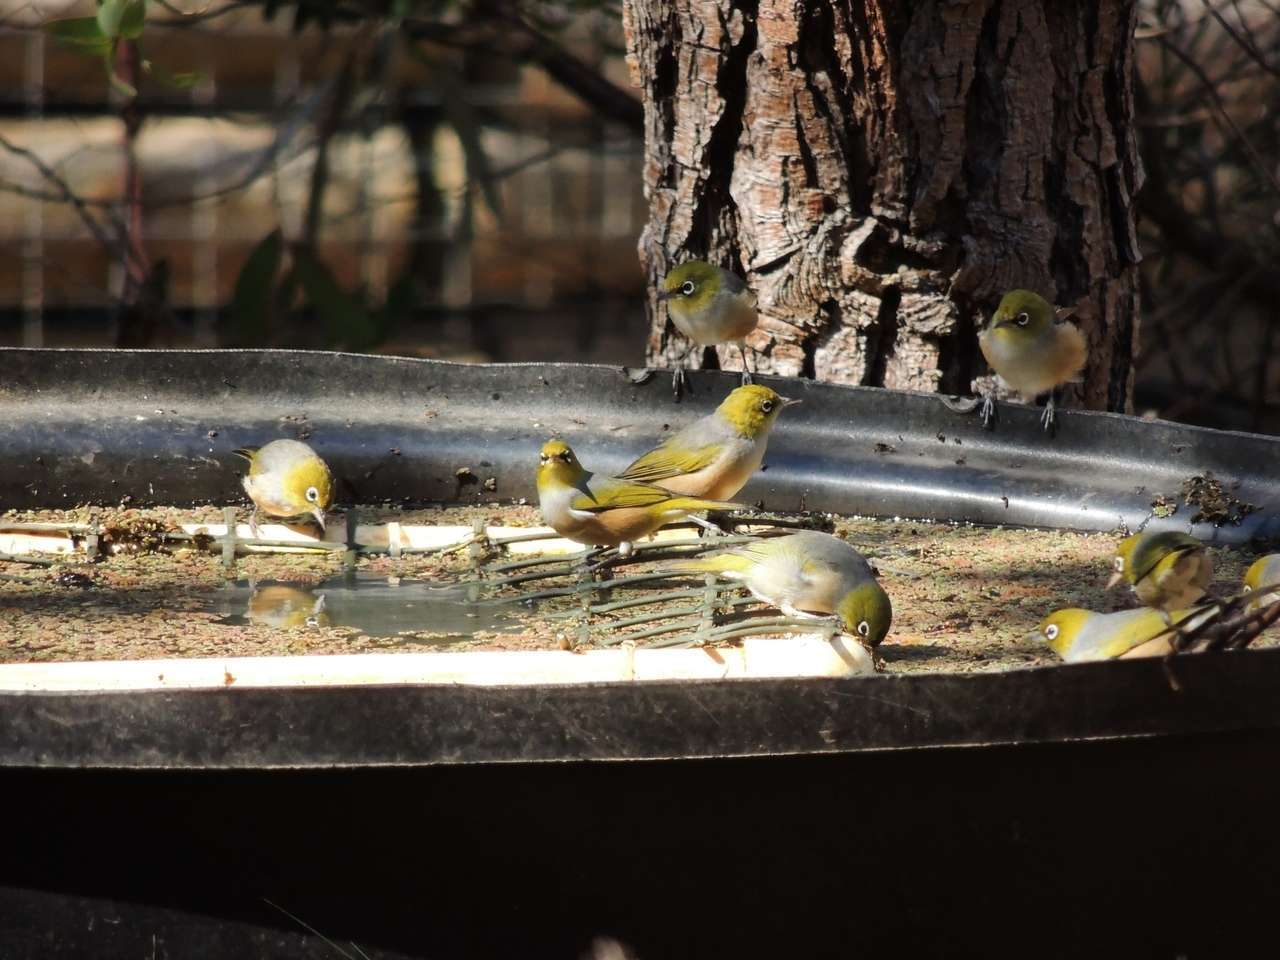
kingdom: Animalia
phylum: Chordata
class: Aves
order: Passeriformes
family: Zosteropidae
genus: Zosterops
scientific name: Zosterops lateralis
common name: Silvereye
